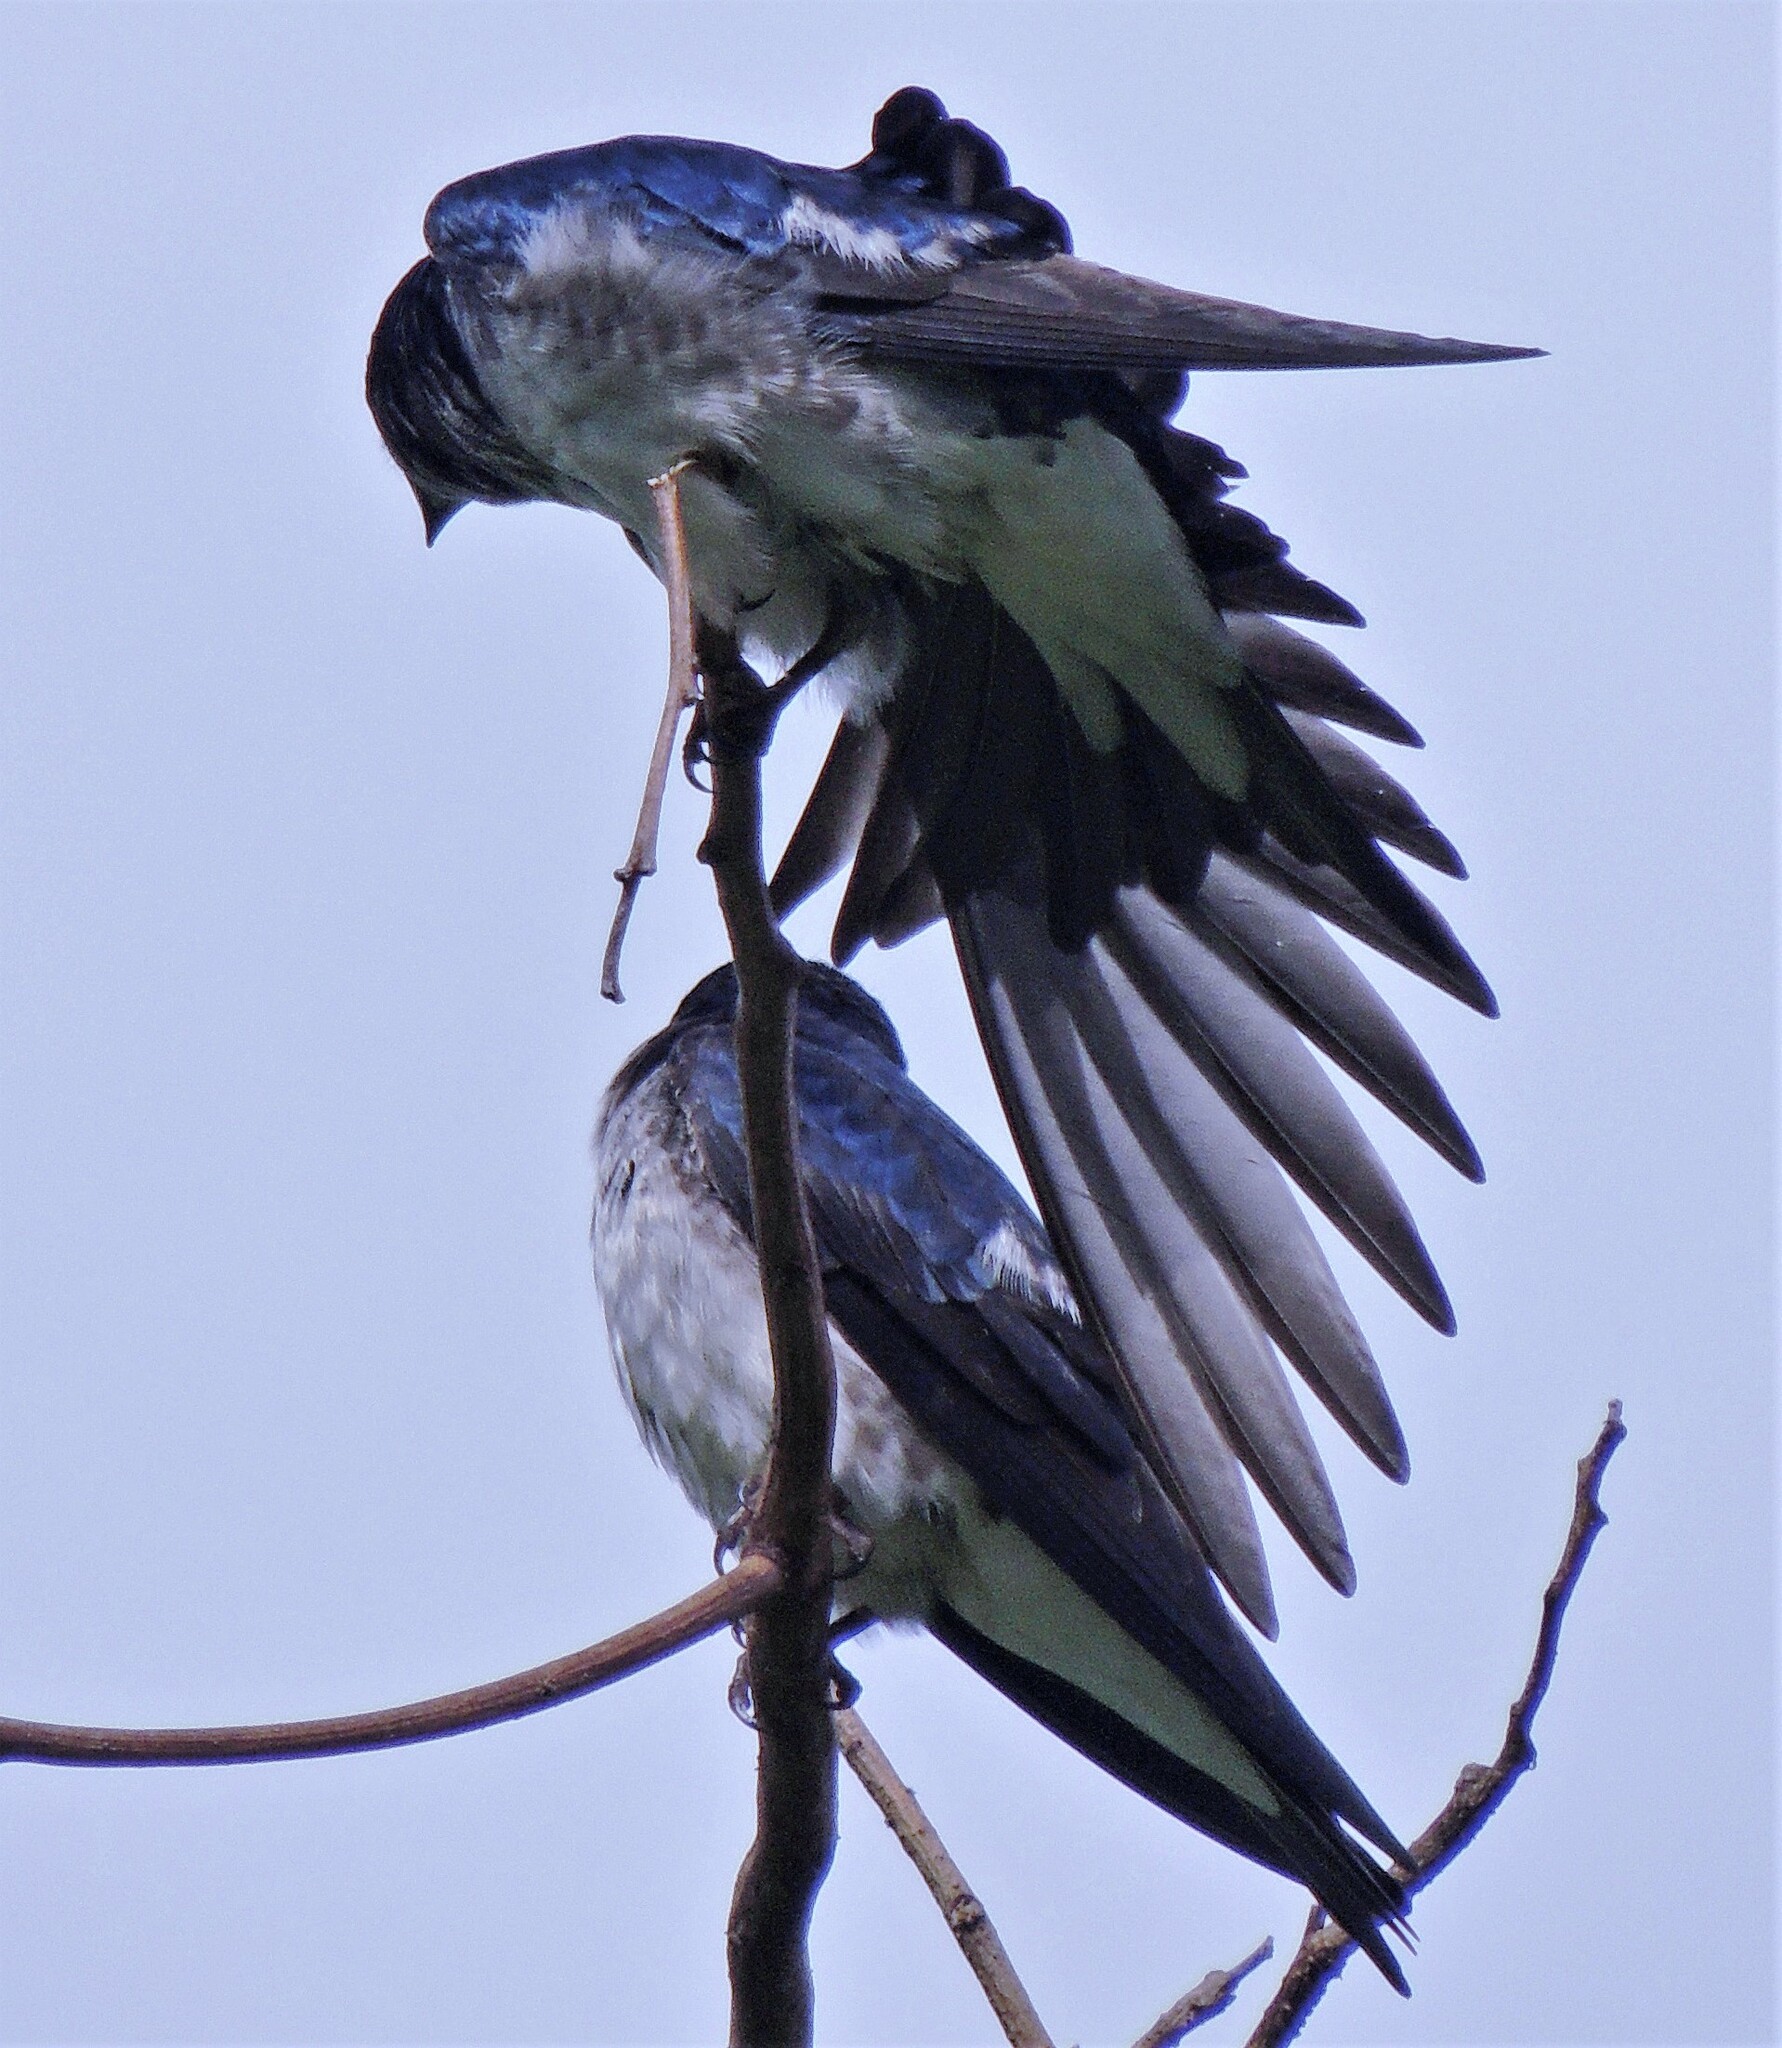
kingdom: Animalia
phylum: Chordata
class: Aves
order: Passeriformes
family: Hirundinidae
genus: Progne
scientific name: Progne chalybea
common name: Grey-breasted martin
